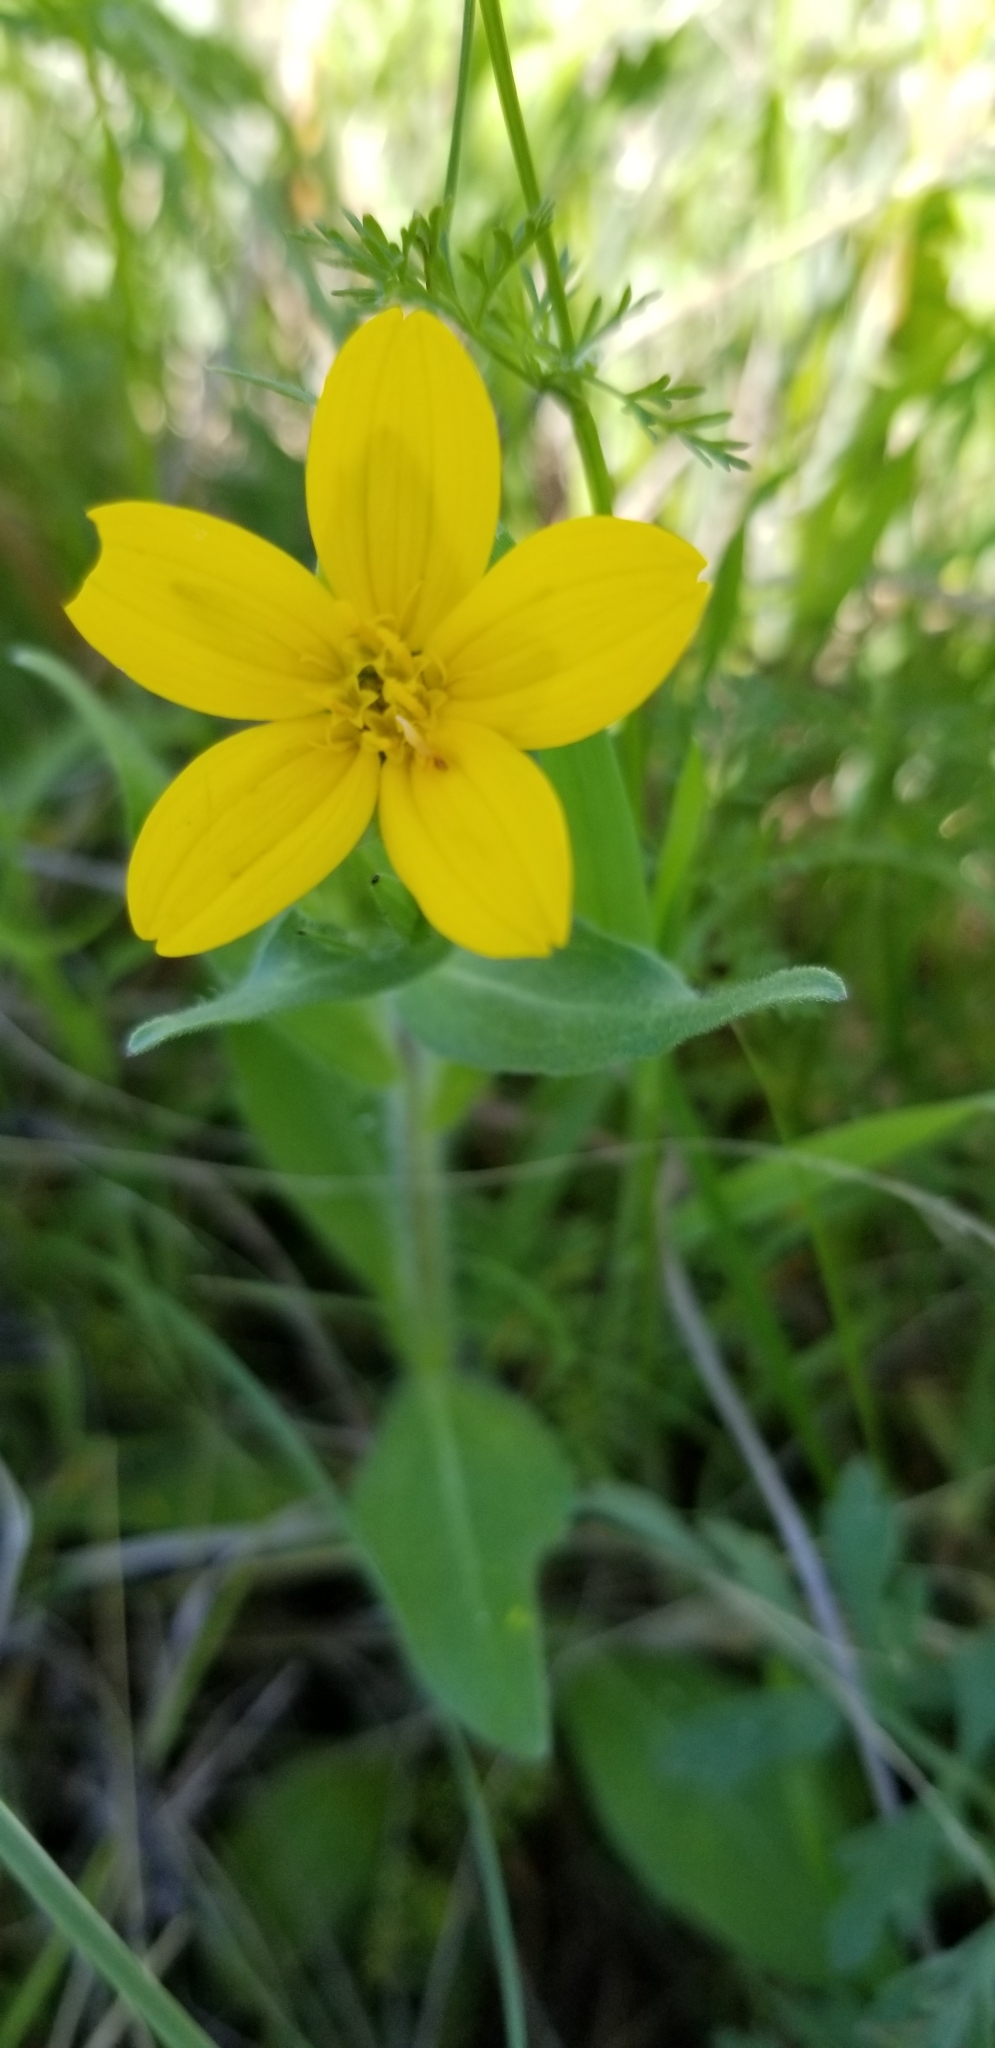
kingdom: Plantae
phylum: Tracheophyta
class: Magnoliopsida
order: Asterales
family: Asteraceae
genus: Lindheimera
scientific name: Lindheimera texana
